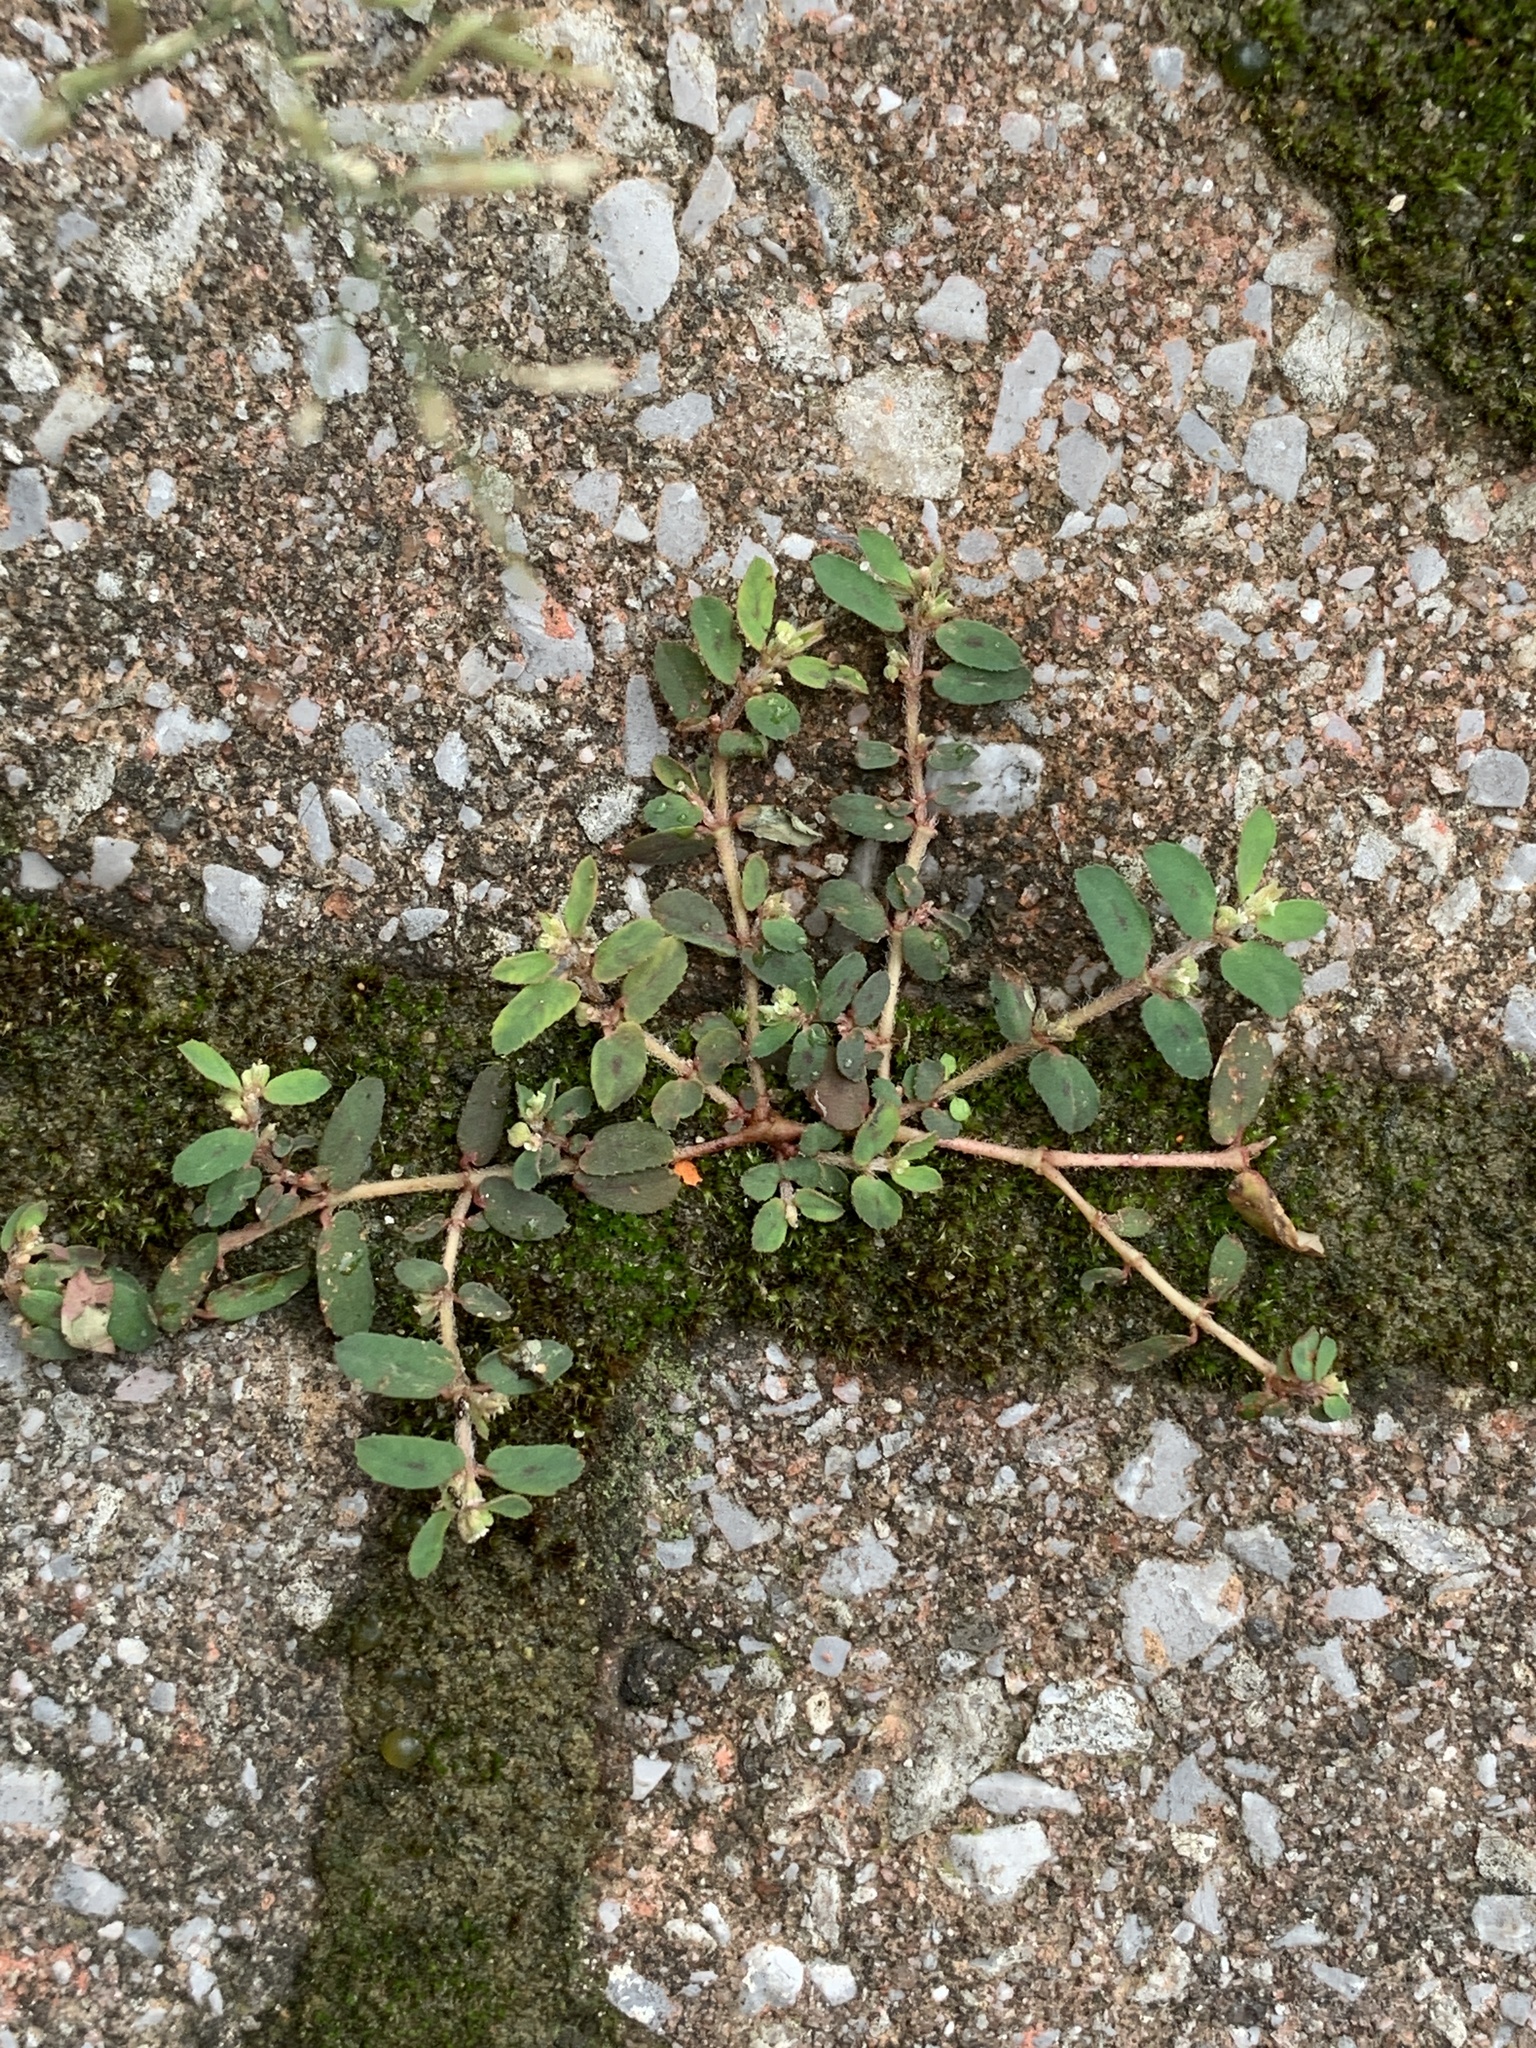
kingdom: Plantae
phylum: Tracheophyta
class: Magnoliopsida
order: Malpighiales
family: Euphorbiaceae
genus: Euphorbia
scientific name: Euphorbia maculata
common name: Spotted spurge
